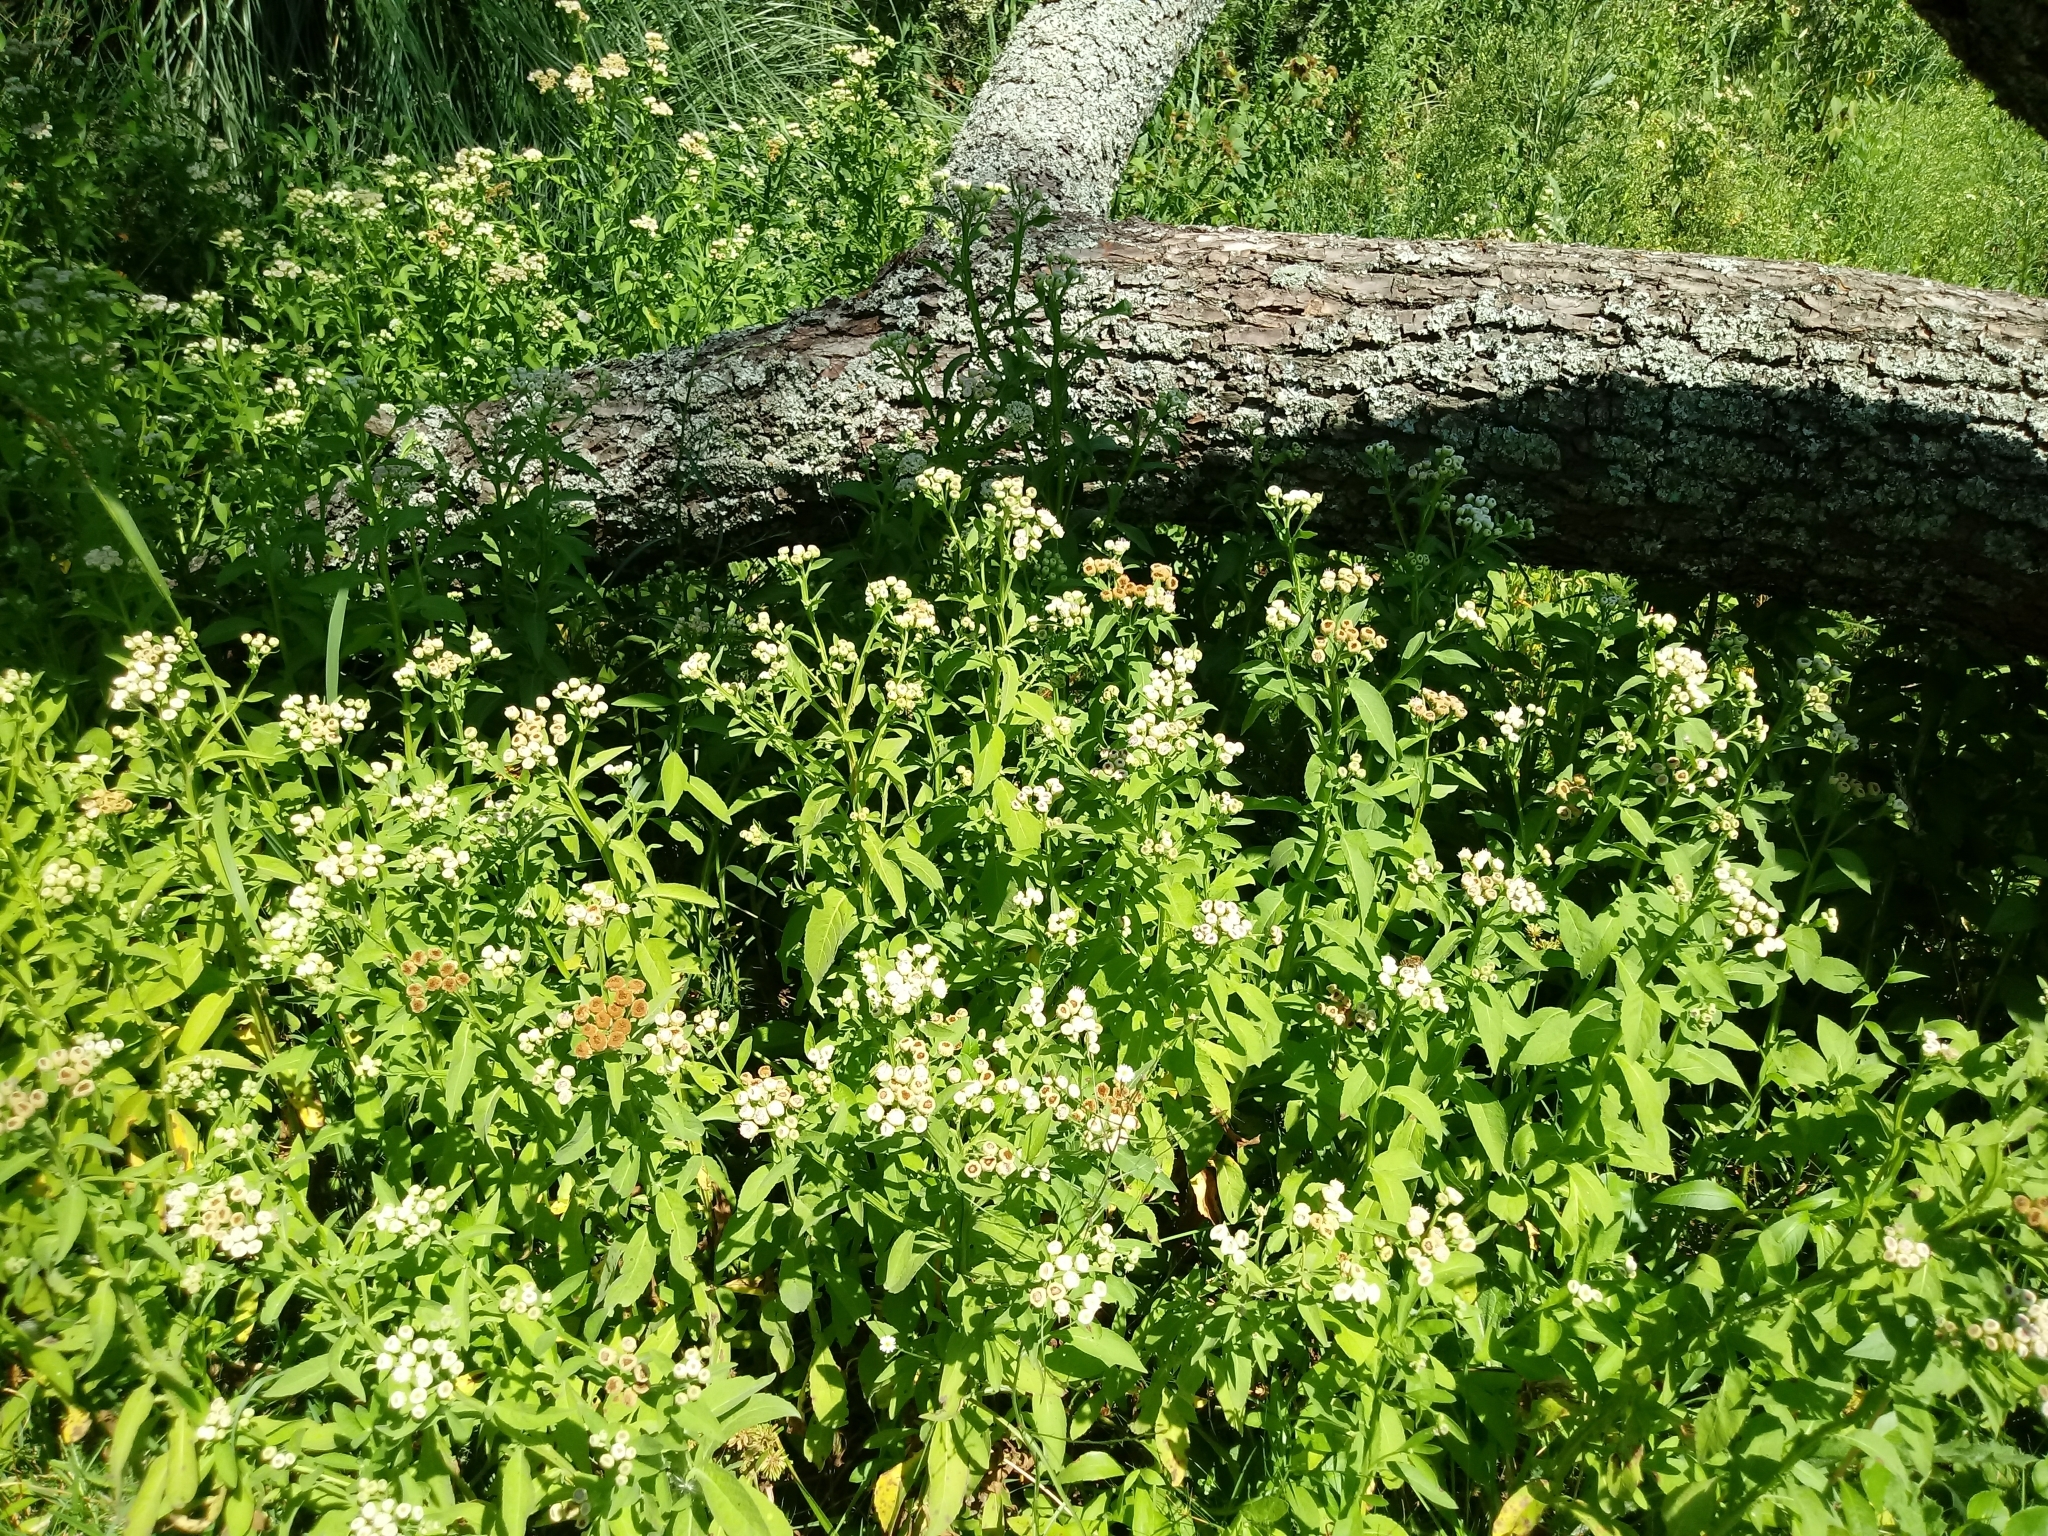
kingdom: Plantae
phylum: Tracheophyta
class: Magnoliopsida
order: Asterales
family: Asteraceae
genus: Pluchea
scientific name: Pluchea sagittalis
